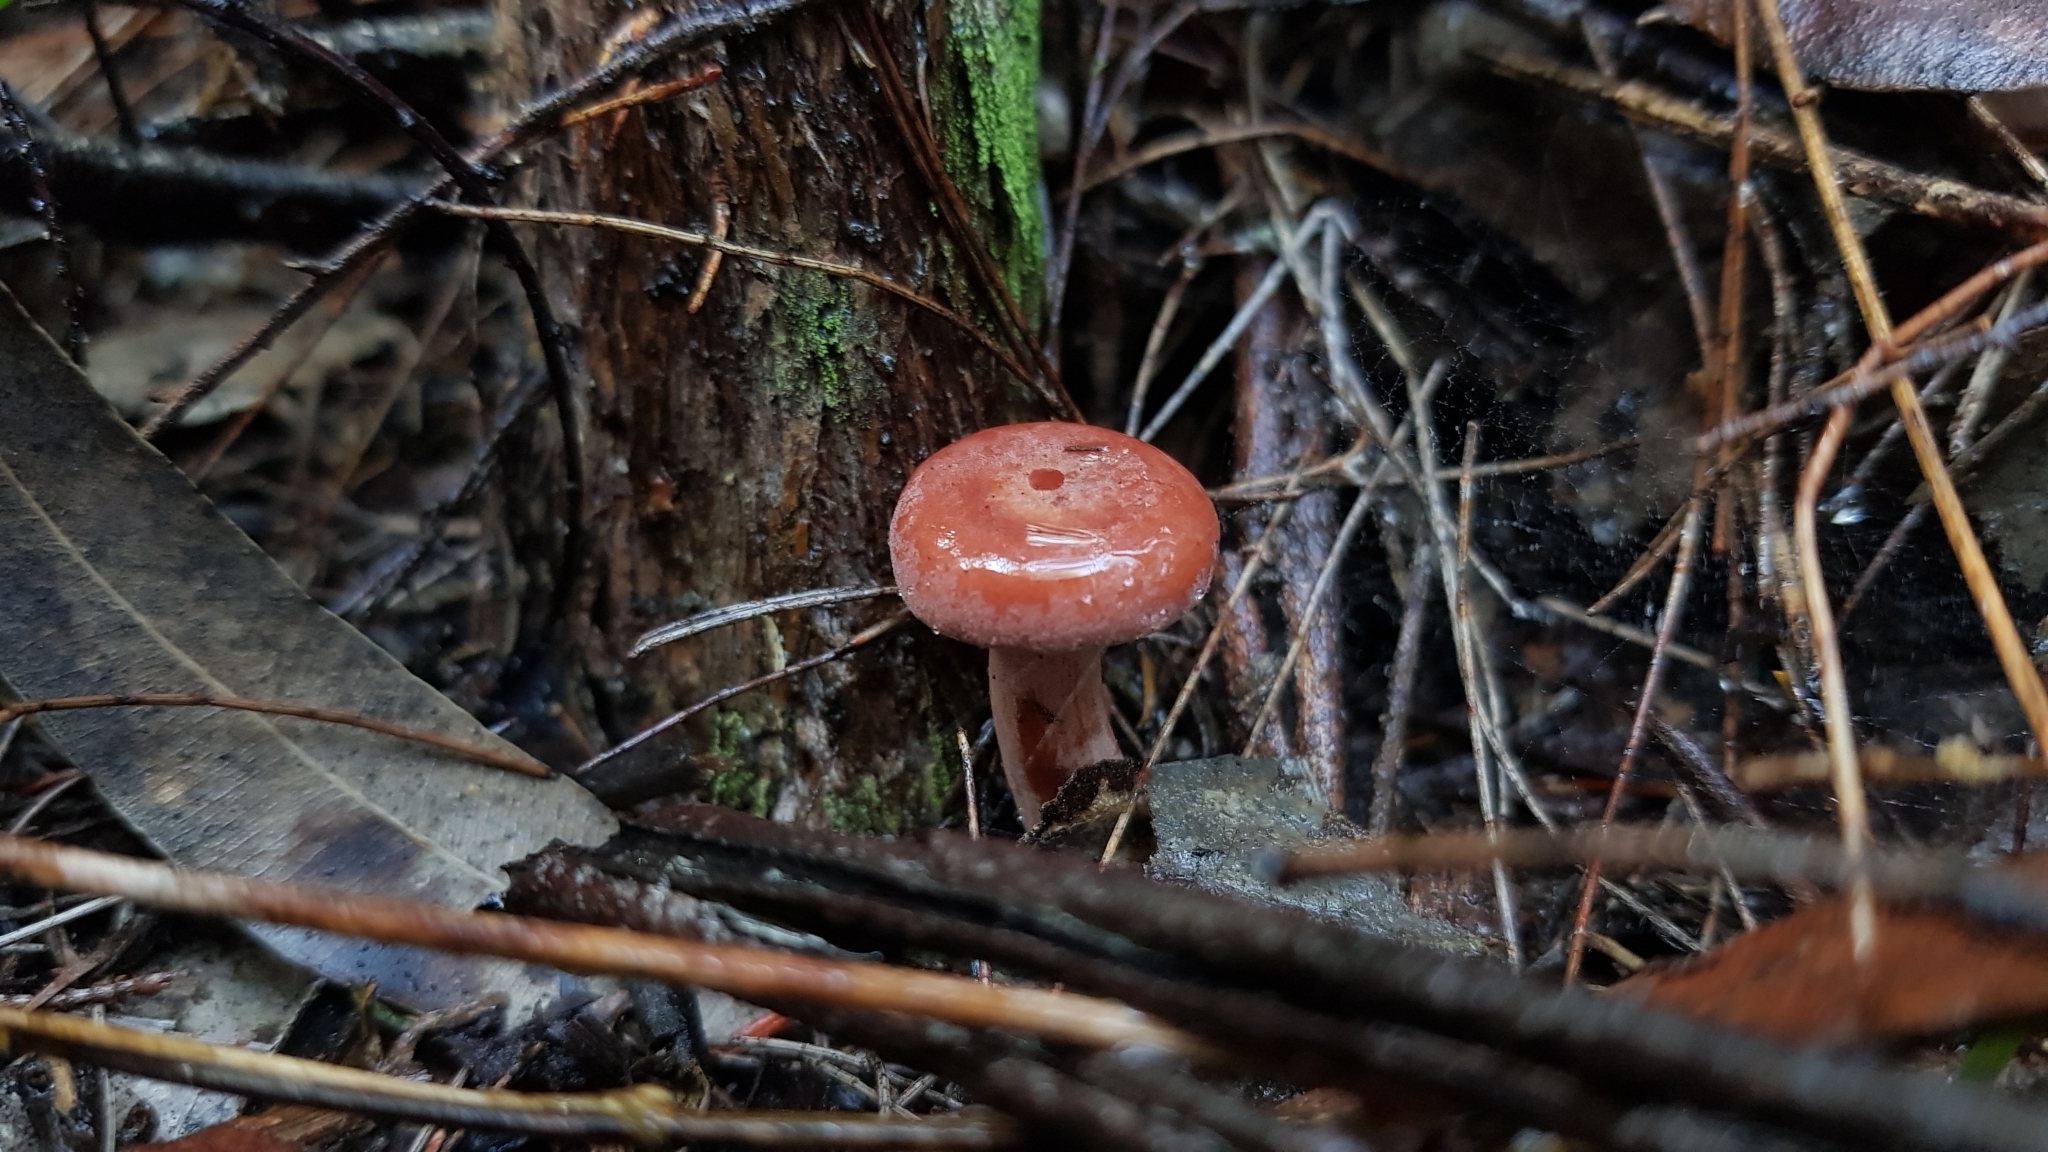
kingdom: Fungi
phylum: Basidiomycota
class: Agaricomycetes
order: Russulales
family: Russulaceae
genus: Lactarius
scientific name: Lactarius eucalypti
